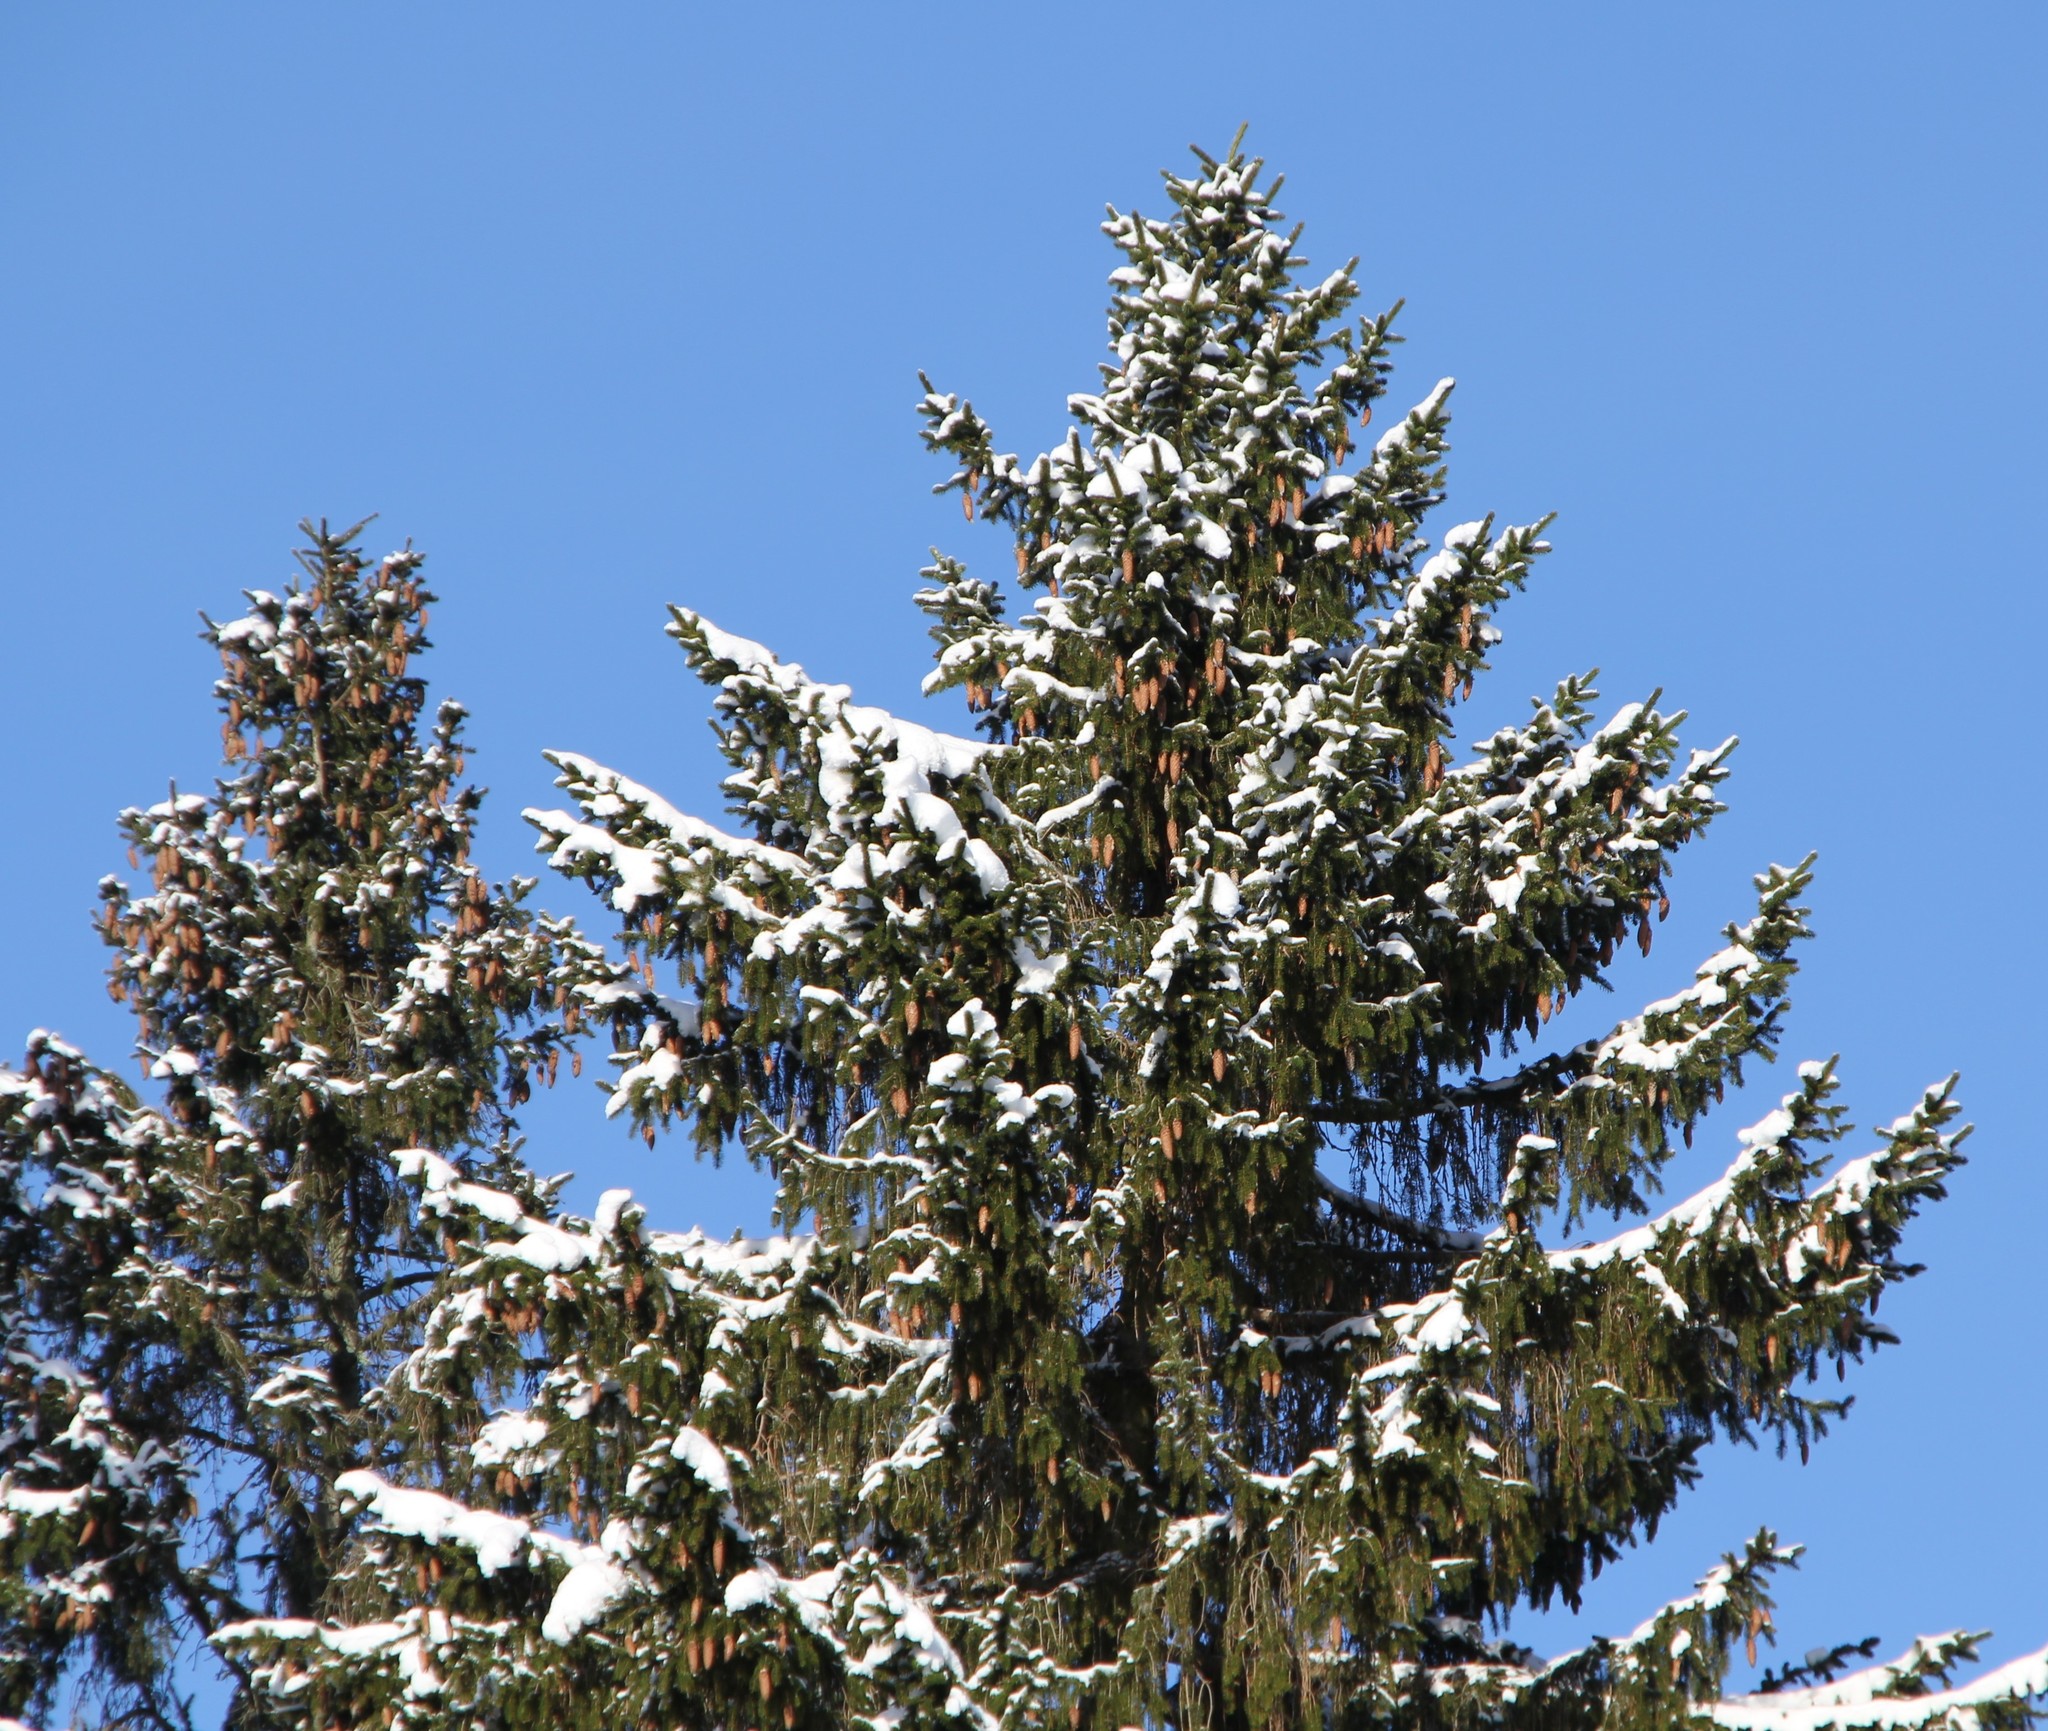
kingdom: Plantae
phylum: Tracheophyta
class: Pinopsida
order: Pinales
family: Pinaceae
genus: Picea
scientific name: Picea abies
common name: Norway spruce
